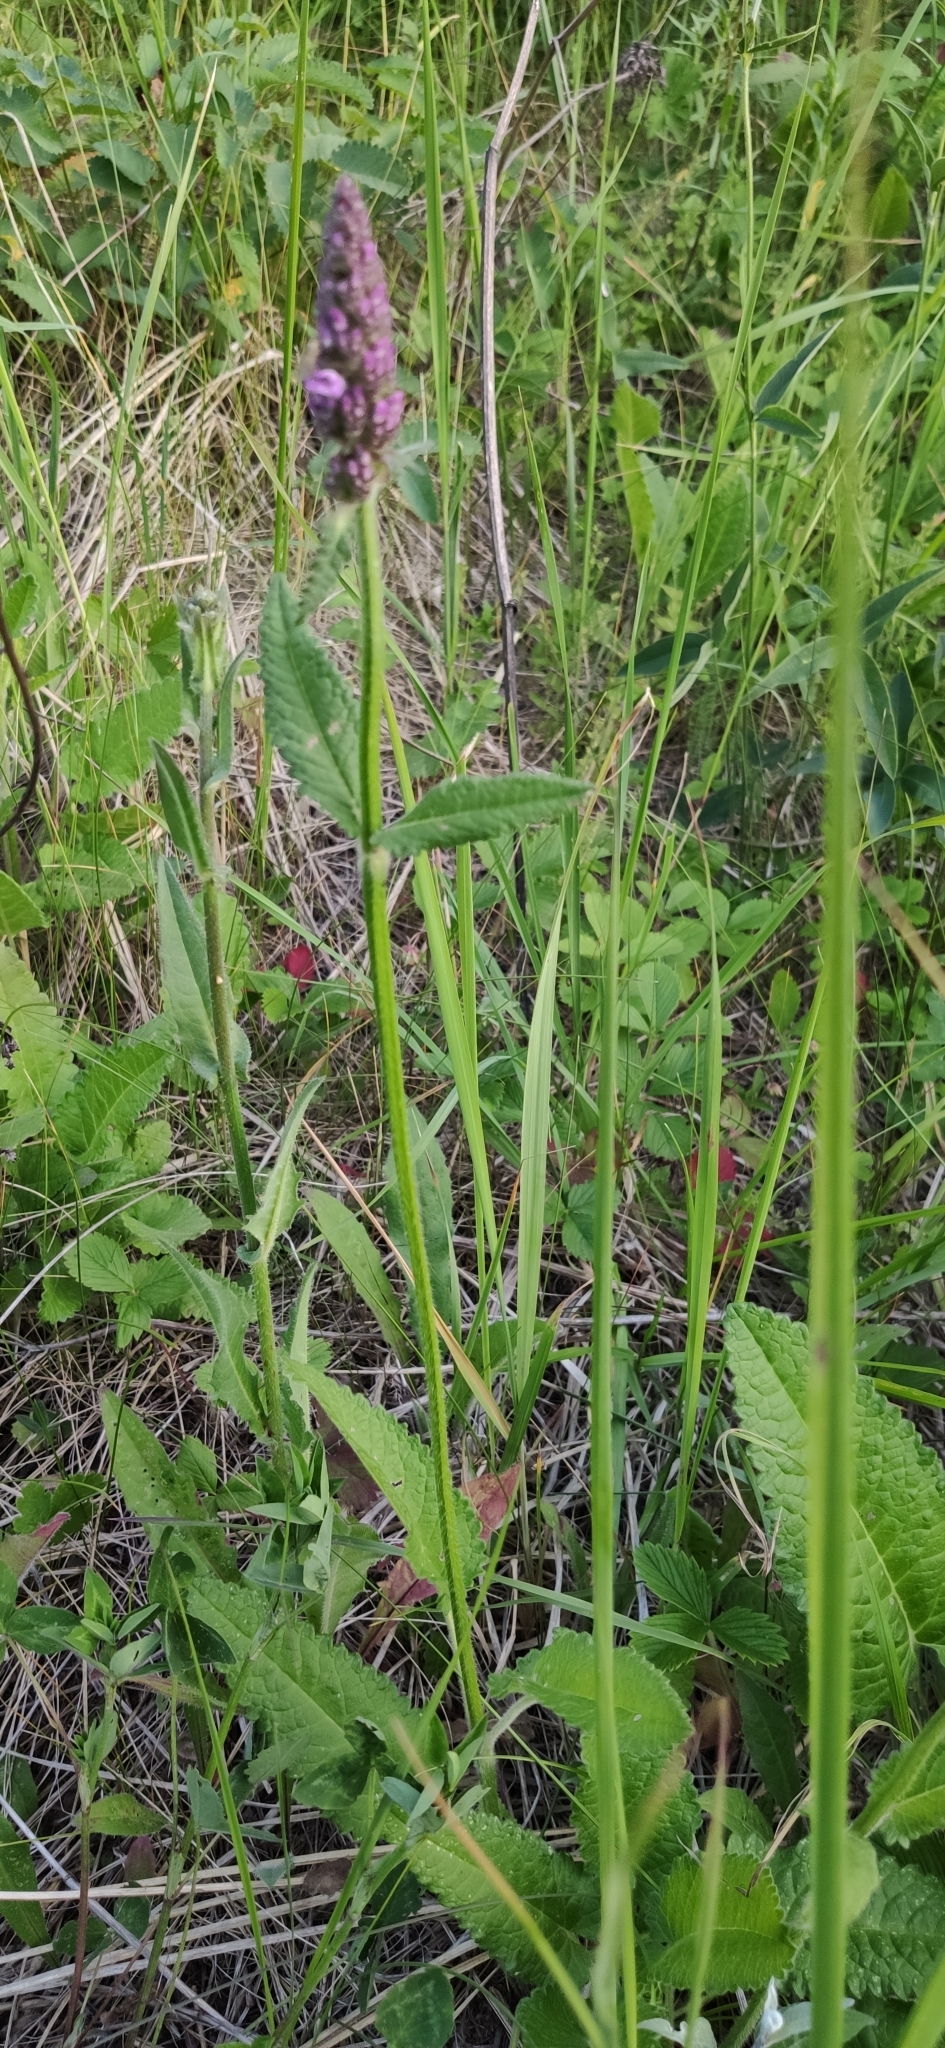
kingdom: Plantae
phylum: Tracheophyta
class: Magnoliopsida
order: Lamiales
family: Lamiaceae
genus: Betonica
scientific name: Betonica officinalis
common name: Bishop's-wort
